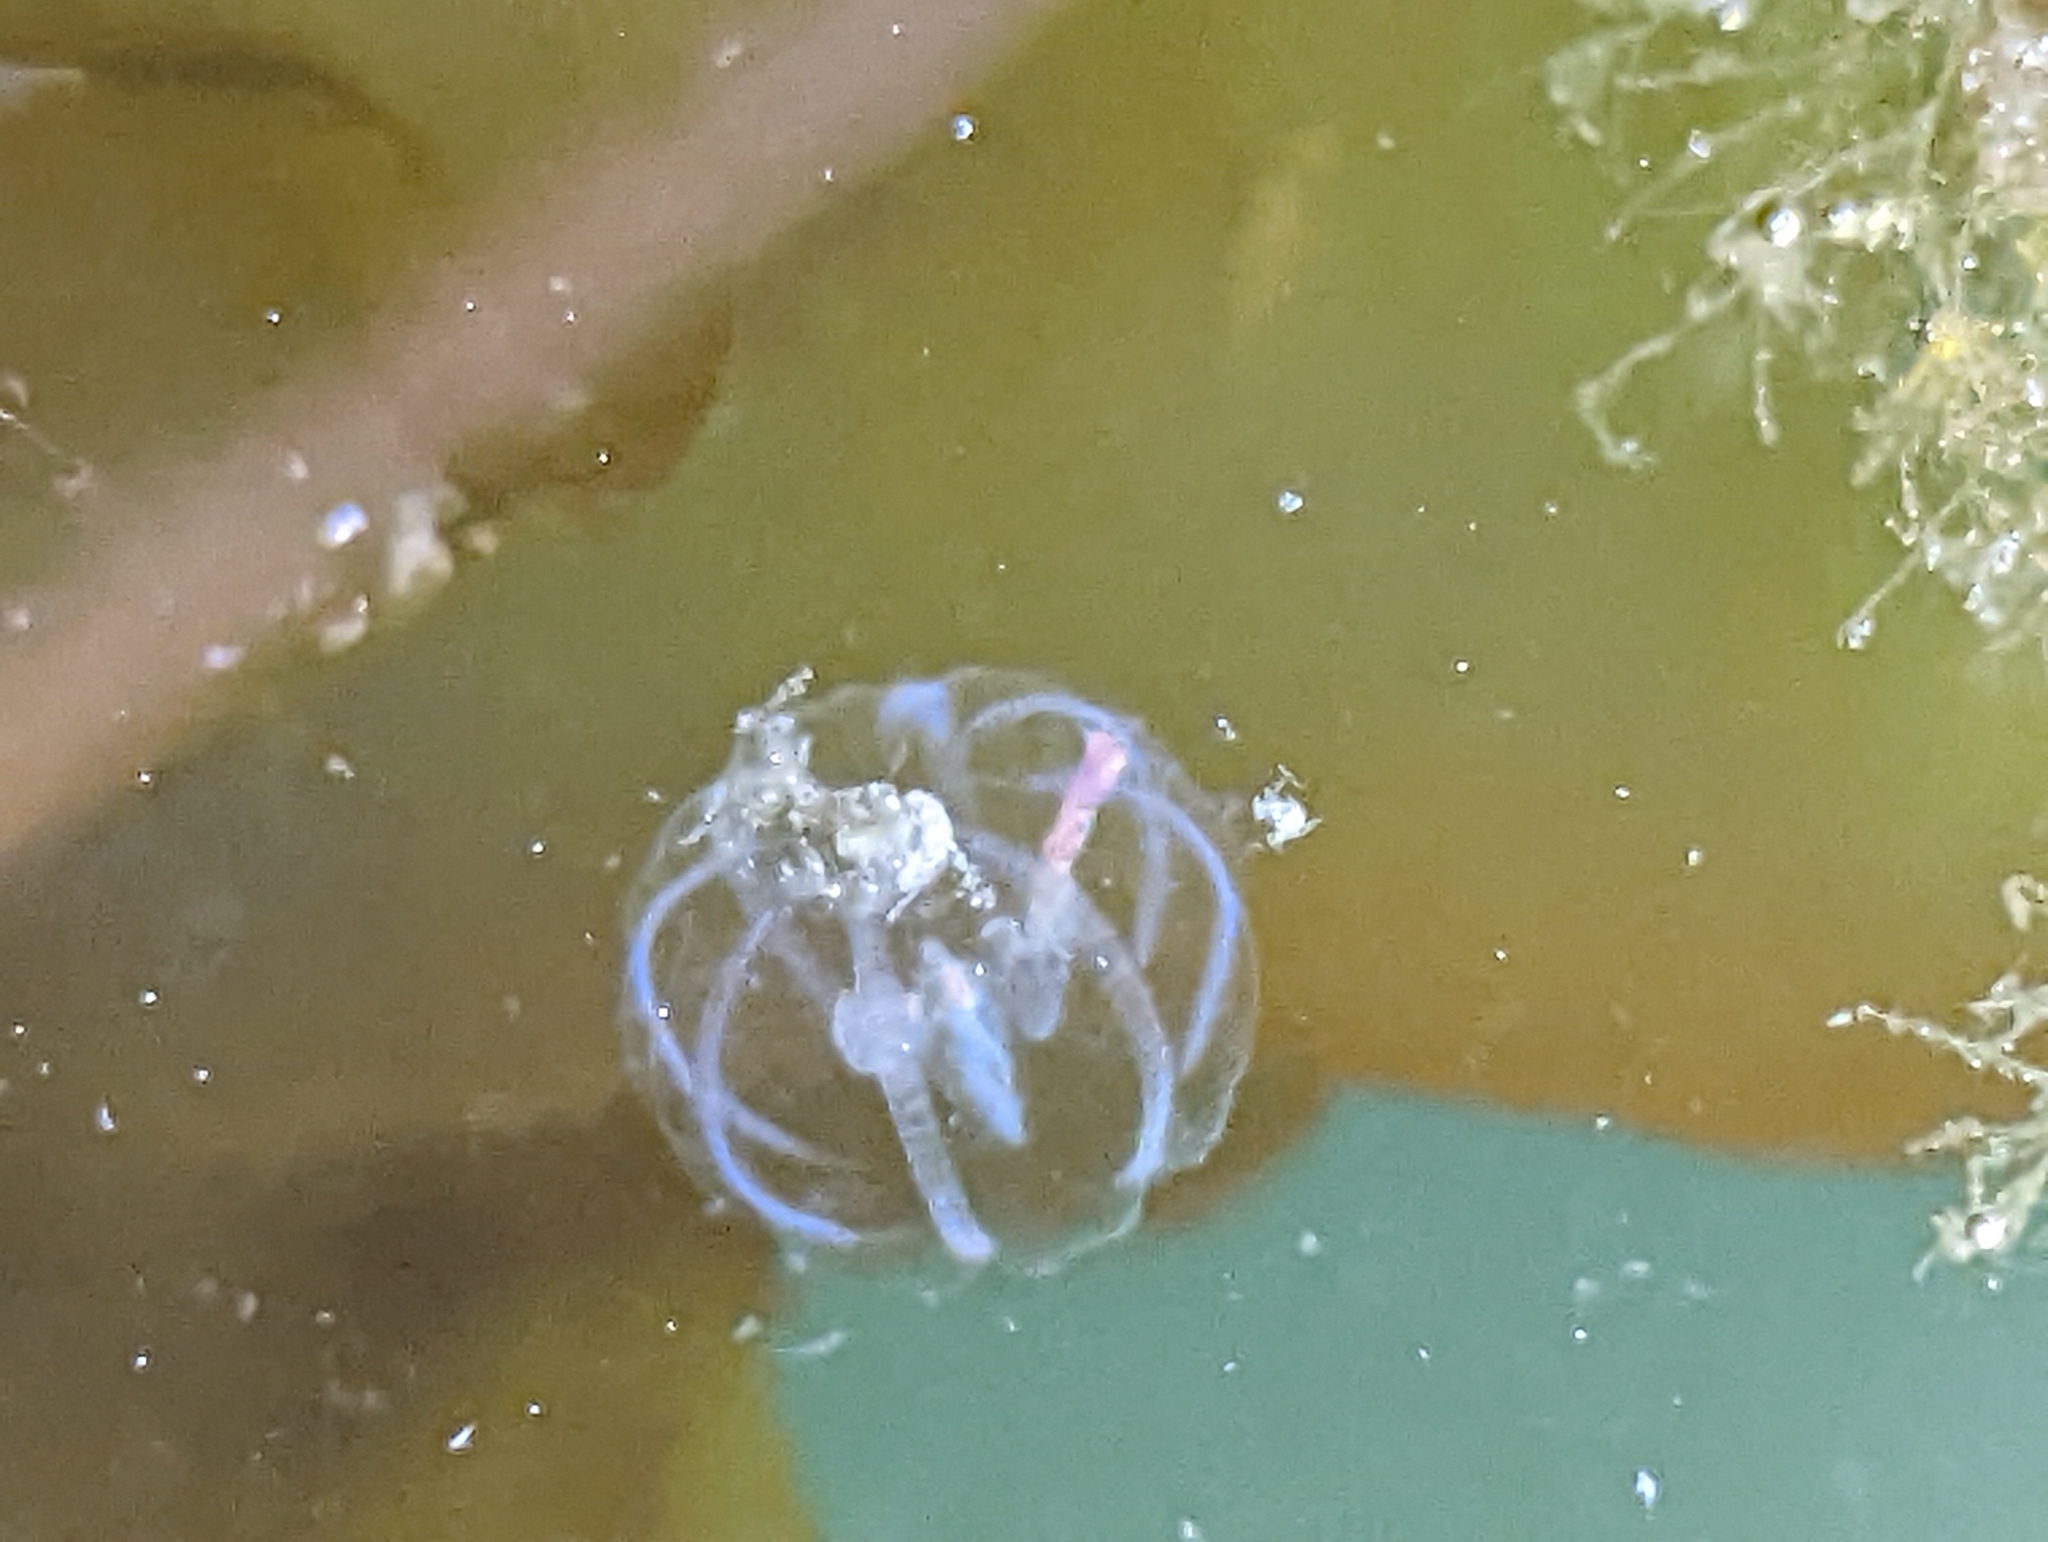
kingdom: Animalia
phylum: Ctenophora
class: Tentaculata
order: Cydippida
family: Pleurobrachiidae
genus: Pleurobrachia
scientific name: Pleurobrachia bachei
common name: Pacific sea gooseberry
